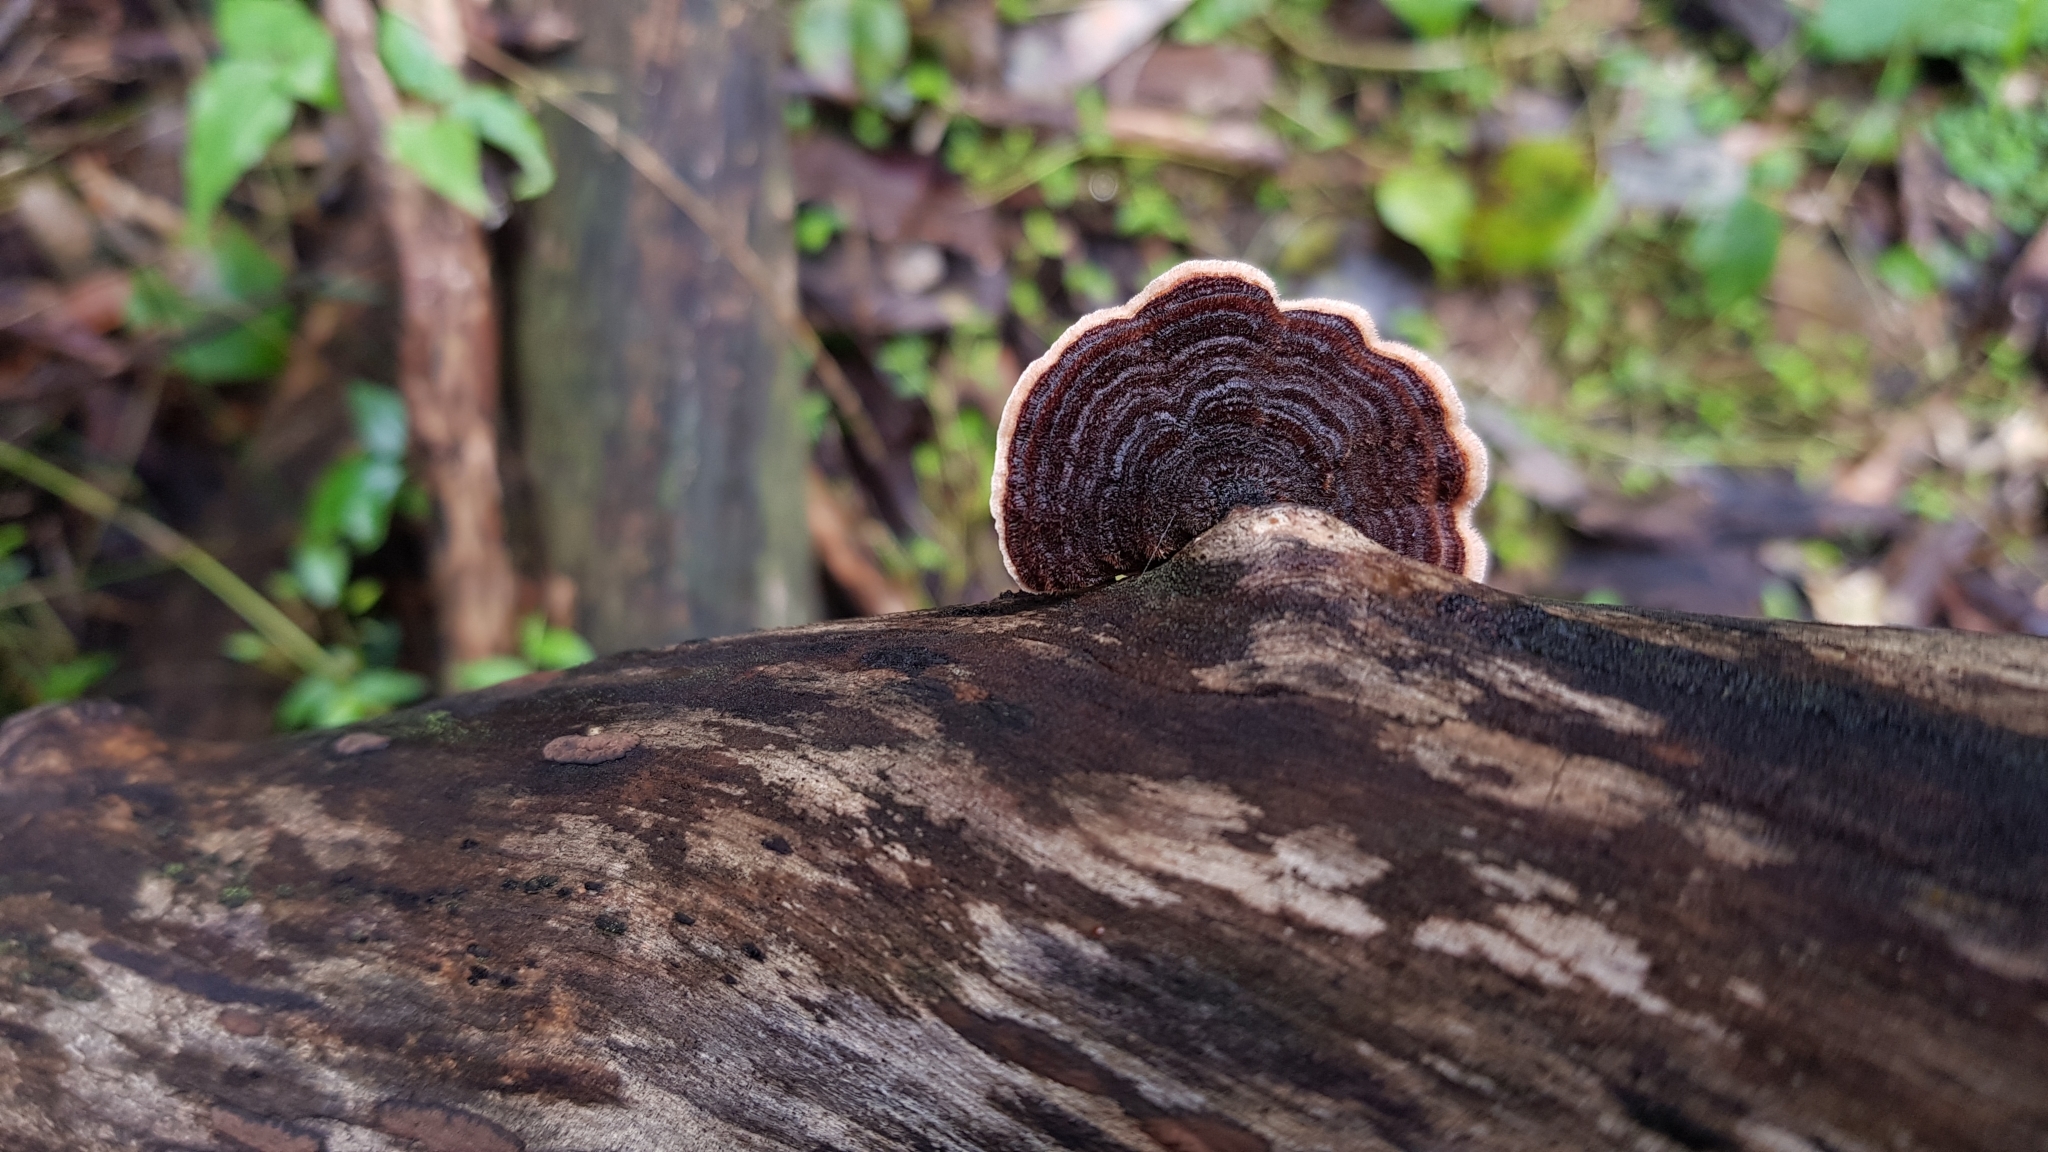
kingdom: Fungi
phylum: Basidiomycota
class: Agaricomycetes
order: Russulales
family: Stereaceae
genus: Xylobolus
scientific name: Xylobolus illudens
